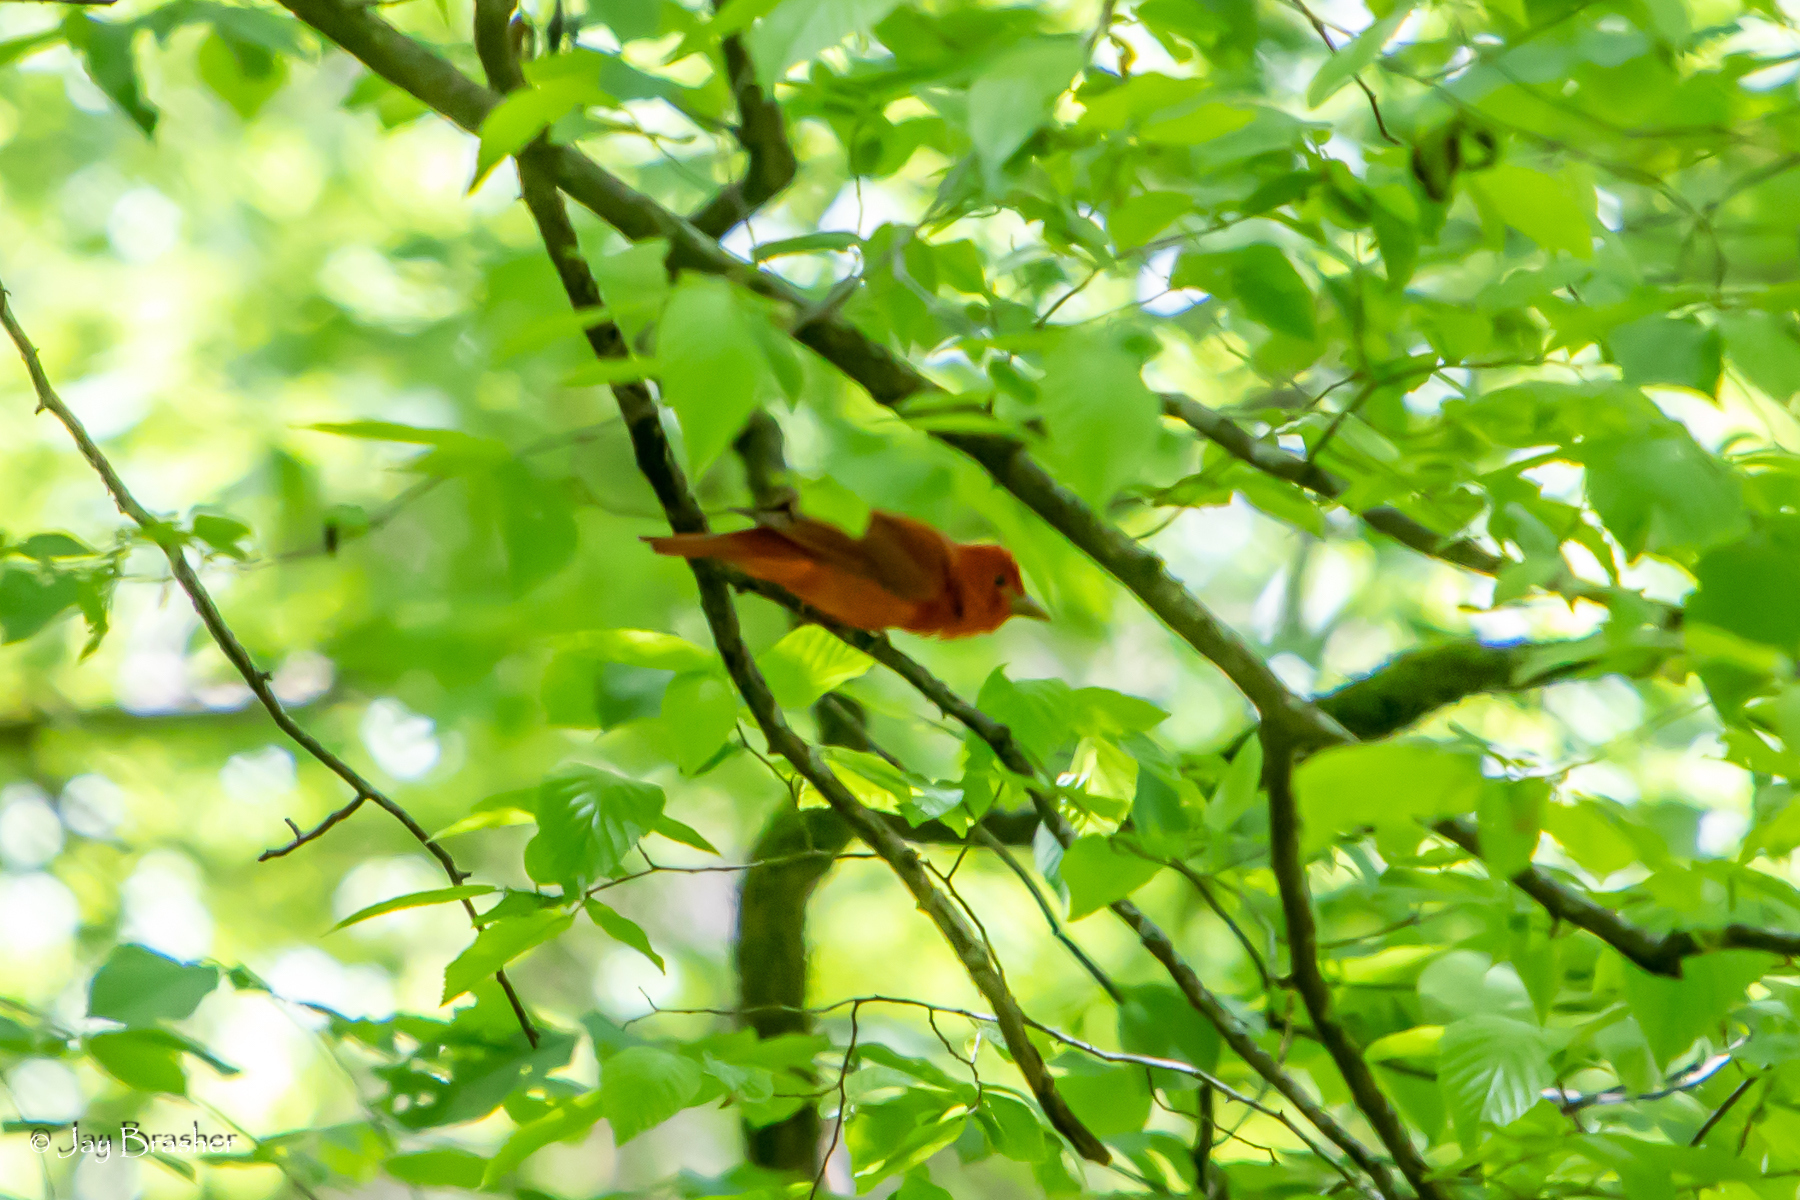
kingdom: Animalia
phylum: Chordata
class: Aves
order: Passeriformes
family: Cardinalidae
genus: Piranga
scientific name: Piranga rubra
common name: Summer tanager
